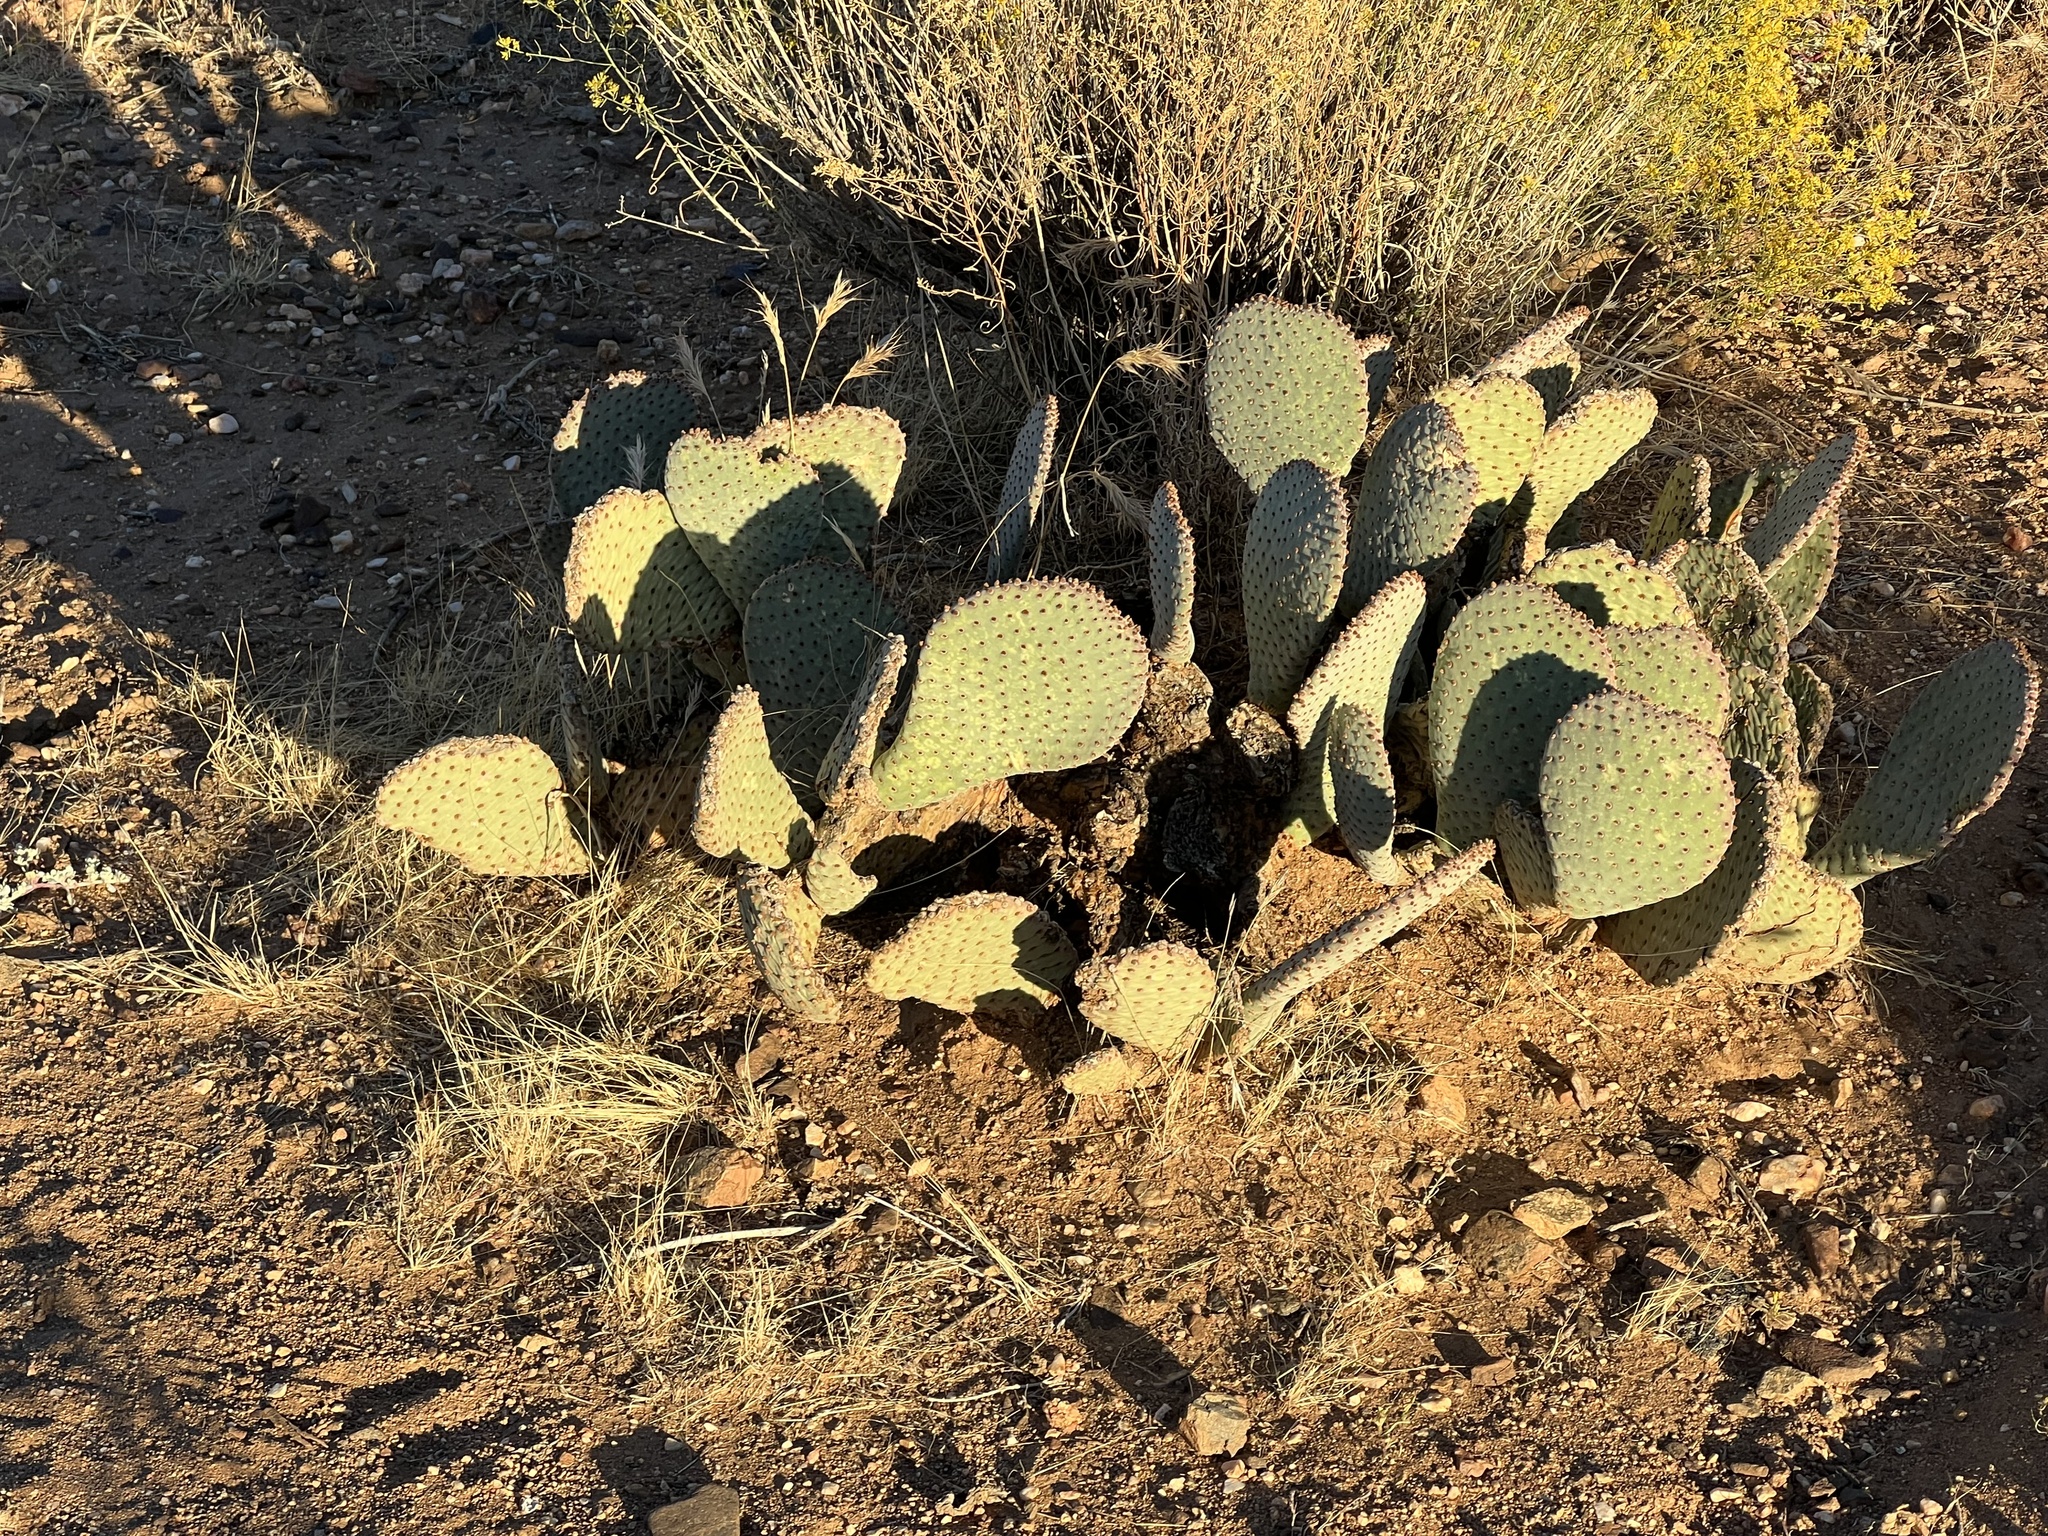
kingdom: Plantae
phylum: Tracheophyta
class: Magnoliopsida
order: Caryophyllales
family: Cactaceae
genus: Opuntia
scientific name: Opuntia basilaris
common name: Beavertail prickly-pear
